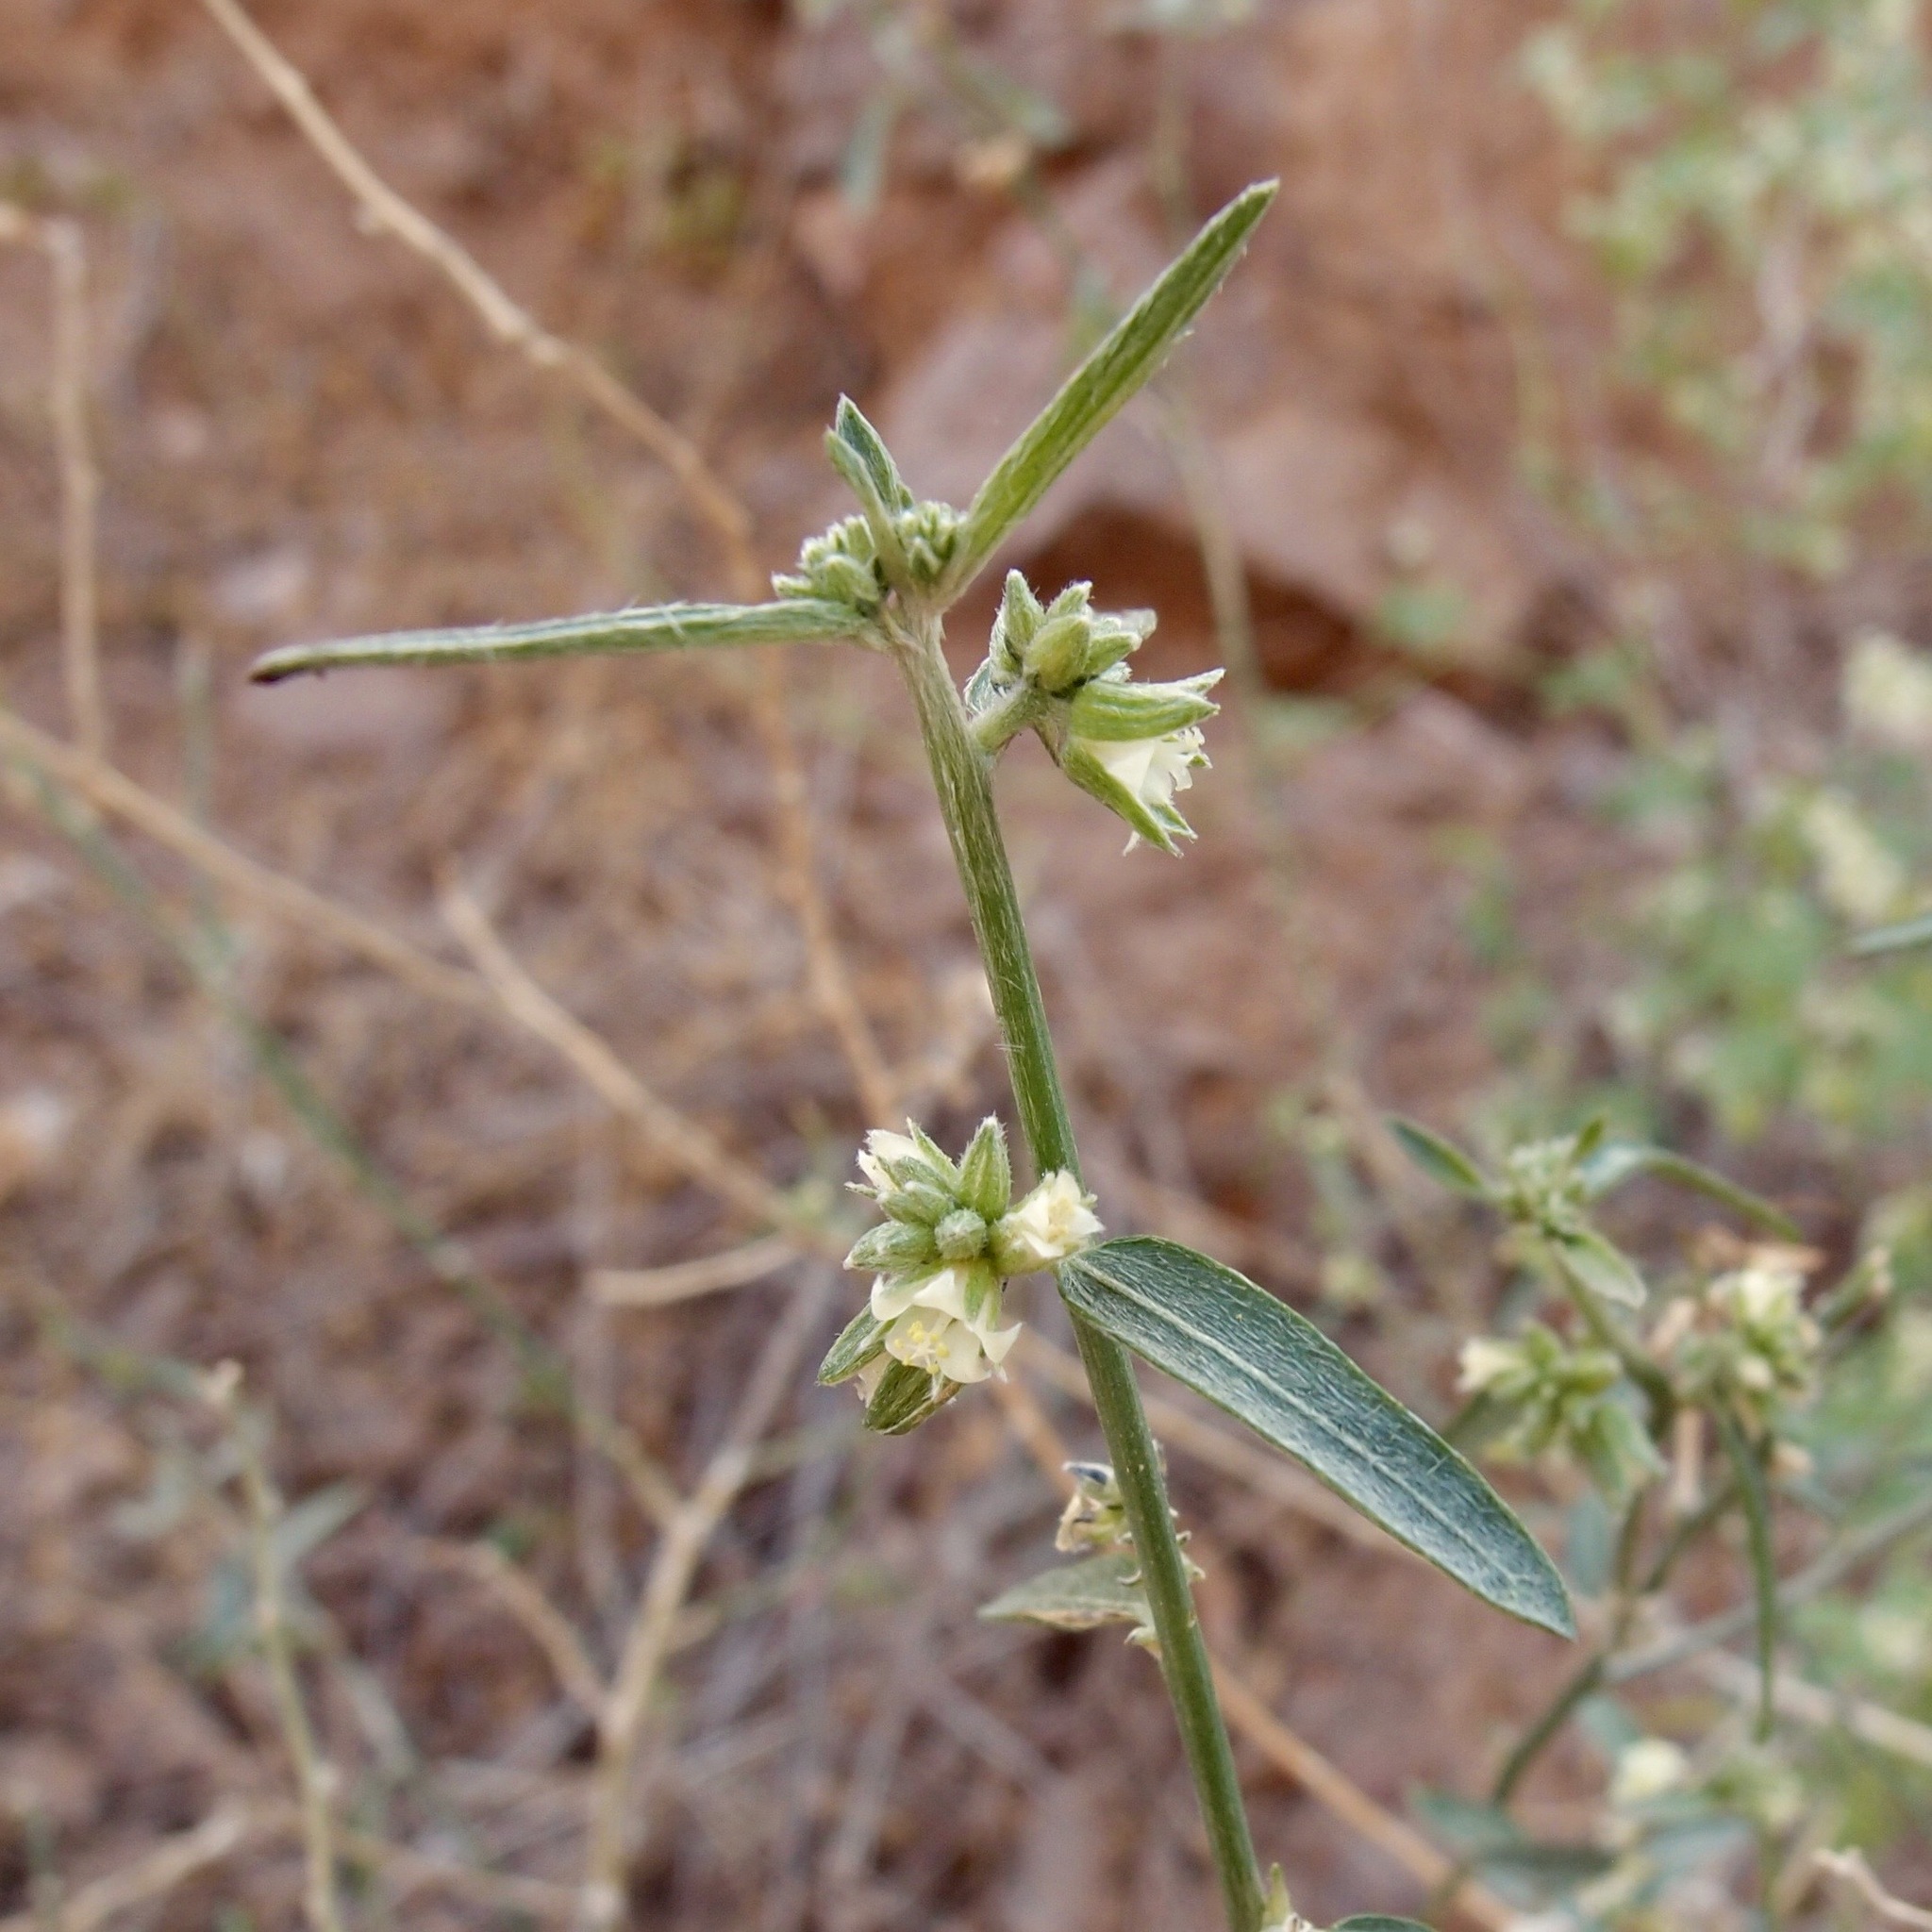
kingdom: Plantae
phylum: Tracheophyta
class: Magnoliopsida
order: Malpighiales
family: Euphorbiaceae
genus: Ditaxis
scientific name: Ditaxis lanceolata
